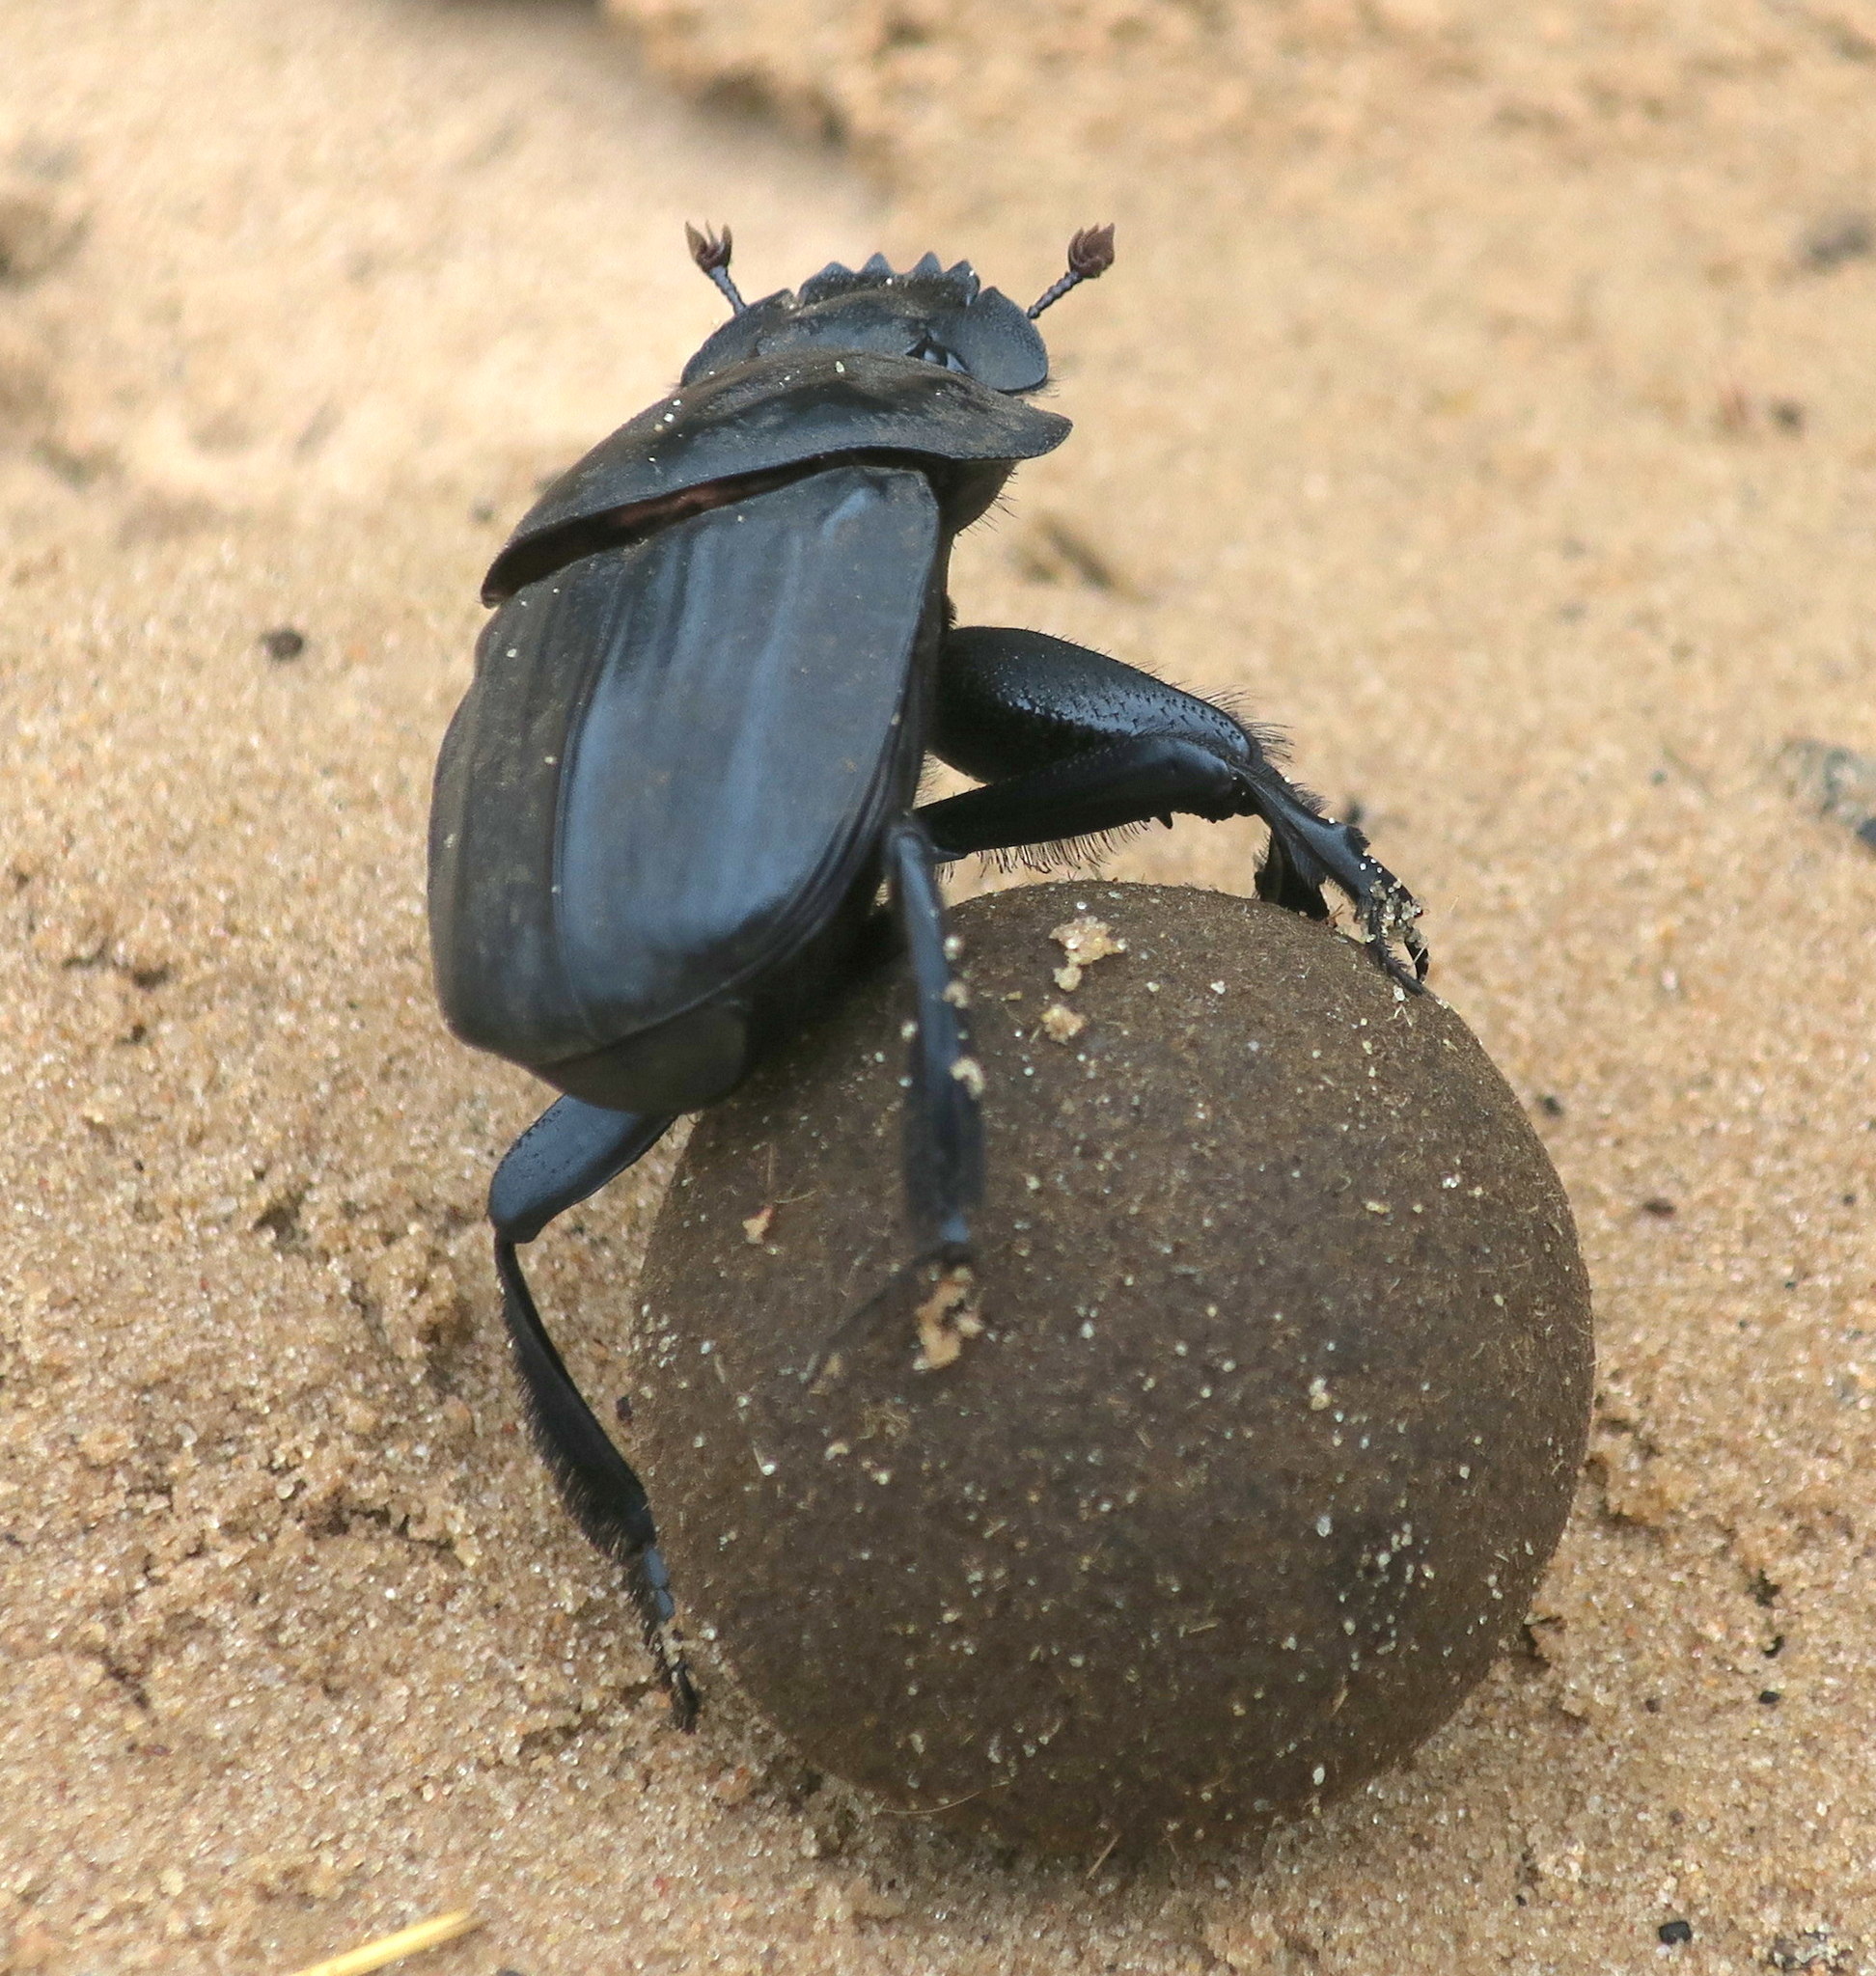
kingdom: Animalia
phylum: Arthropoda
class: Insecta
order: Coleoptera
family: Scarabaeidae
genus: Pachylomera
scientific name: Pachylomera femoralis
